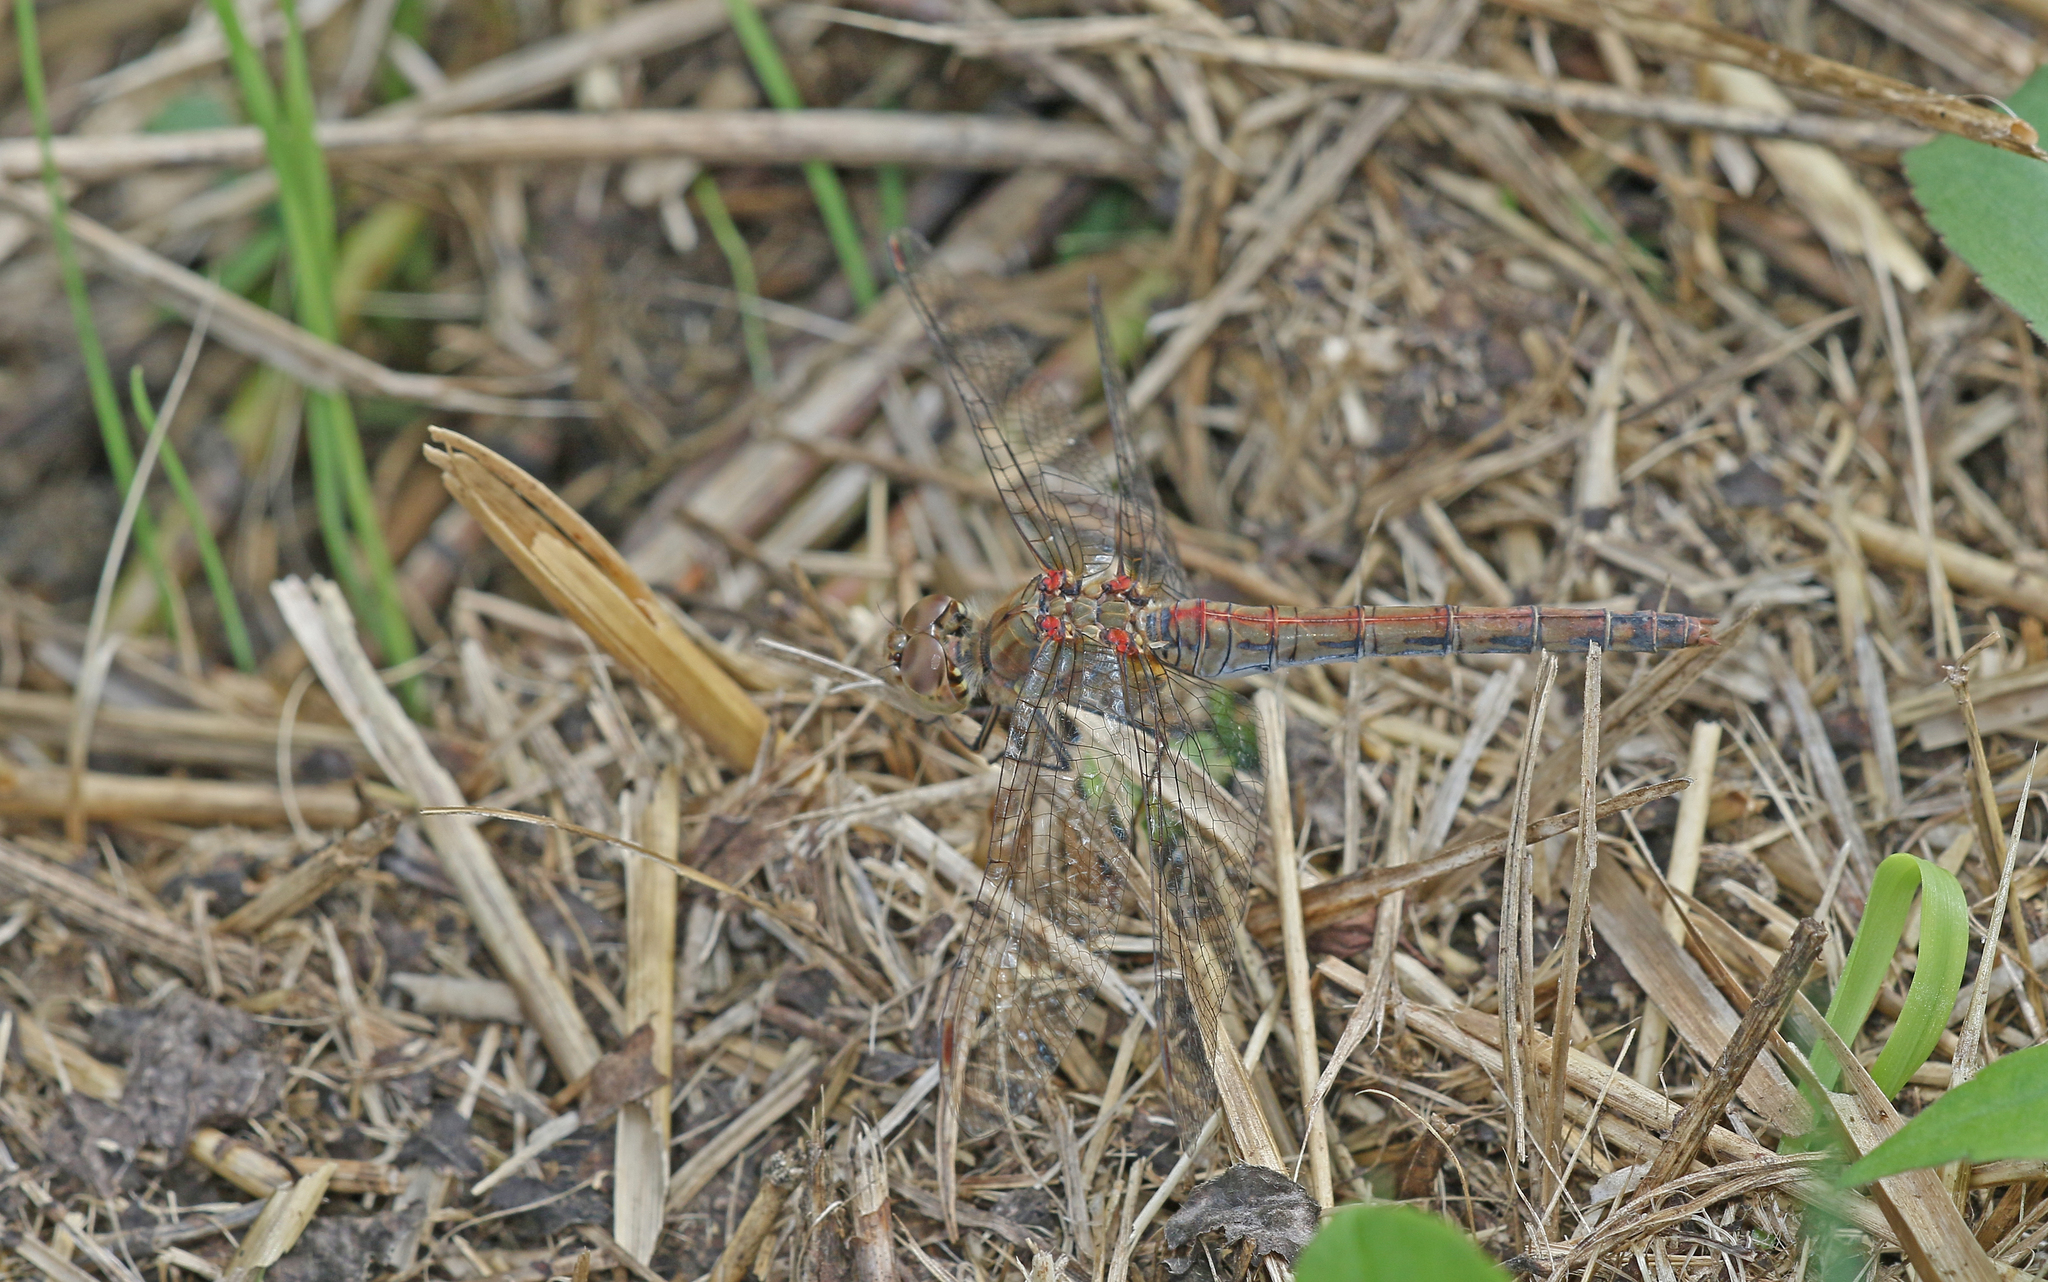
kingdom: Animalia
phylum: Arthropoda
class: Insecta
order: Odonata
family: Libellulidae
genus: Sympetrum
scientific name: Sympetrum striolatum
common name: Common darter
